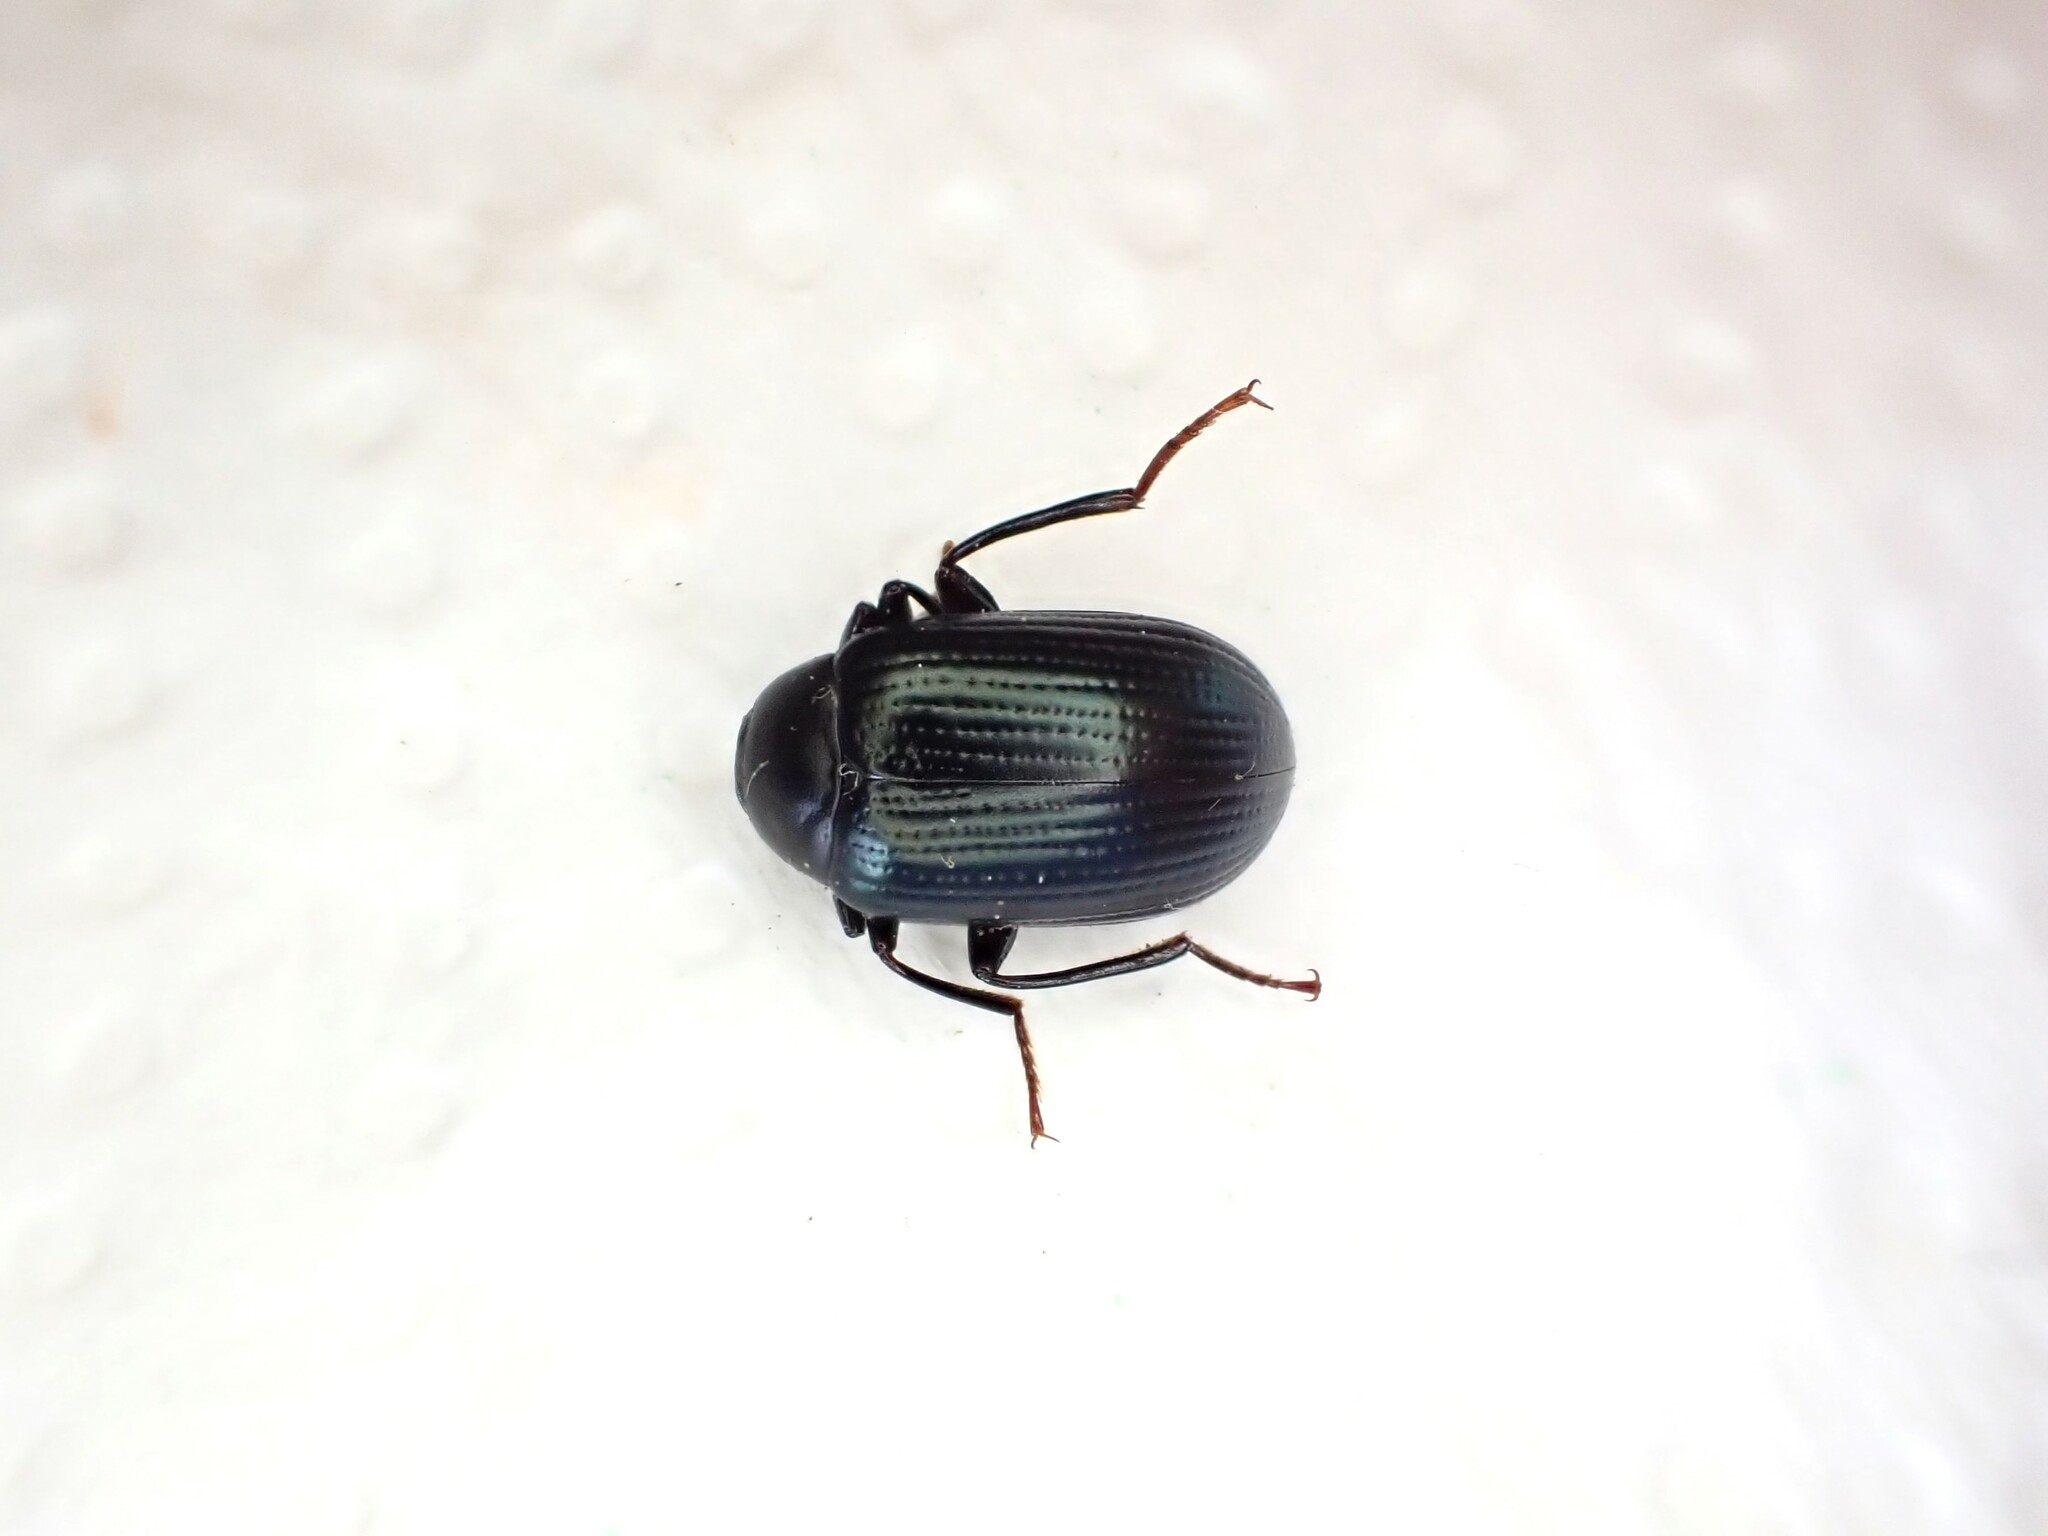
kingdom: Animalia
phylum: Arthropoda
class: Insecta
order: Coleoptera
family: Tenebrionidae
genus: Amarygmus
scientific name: Amarygmus
